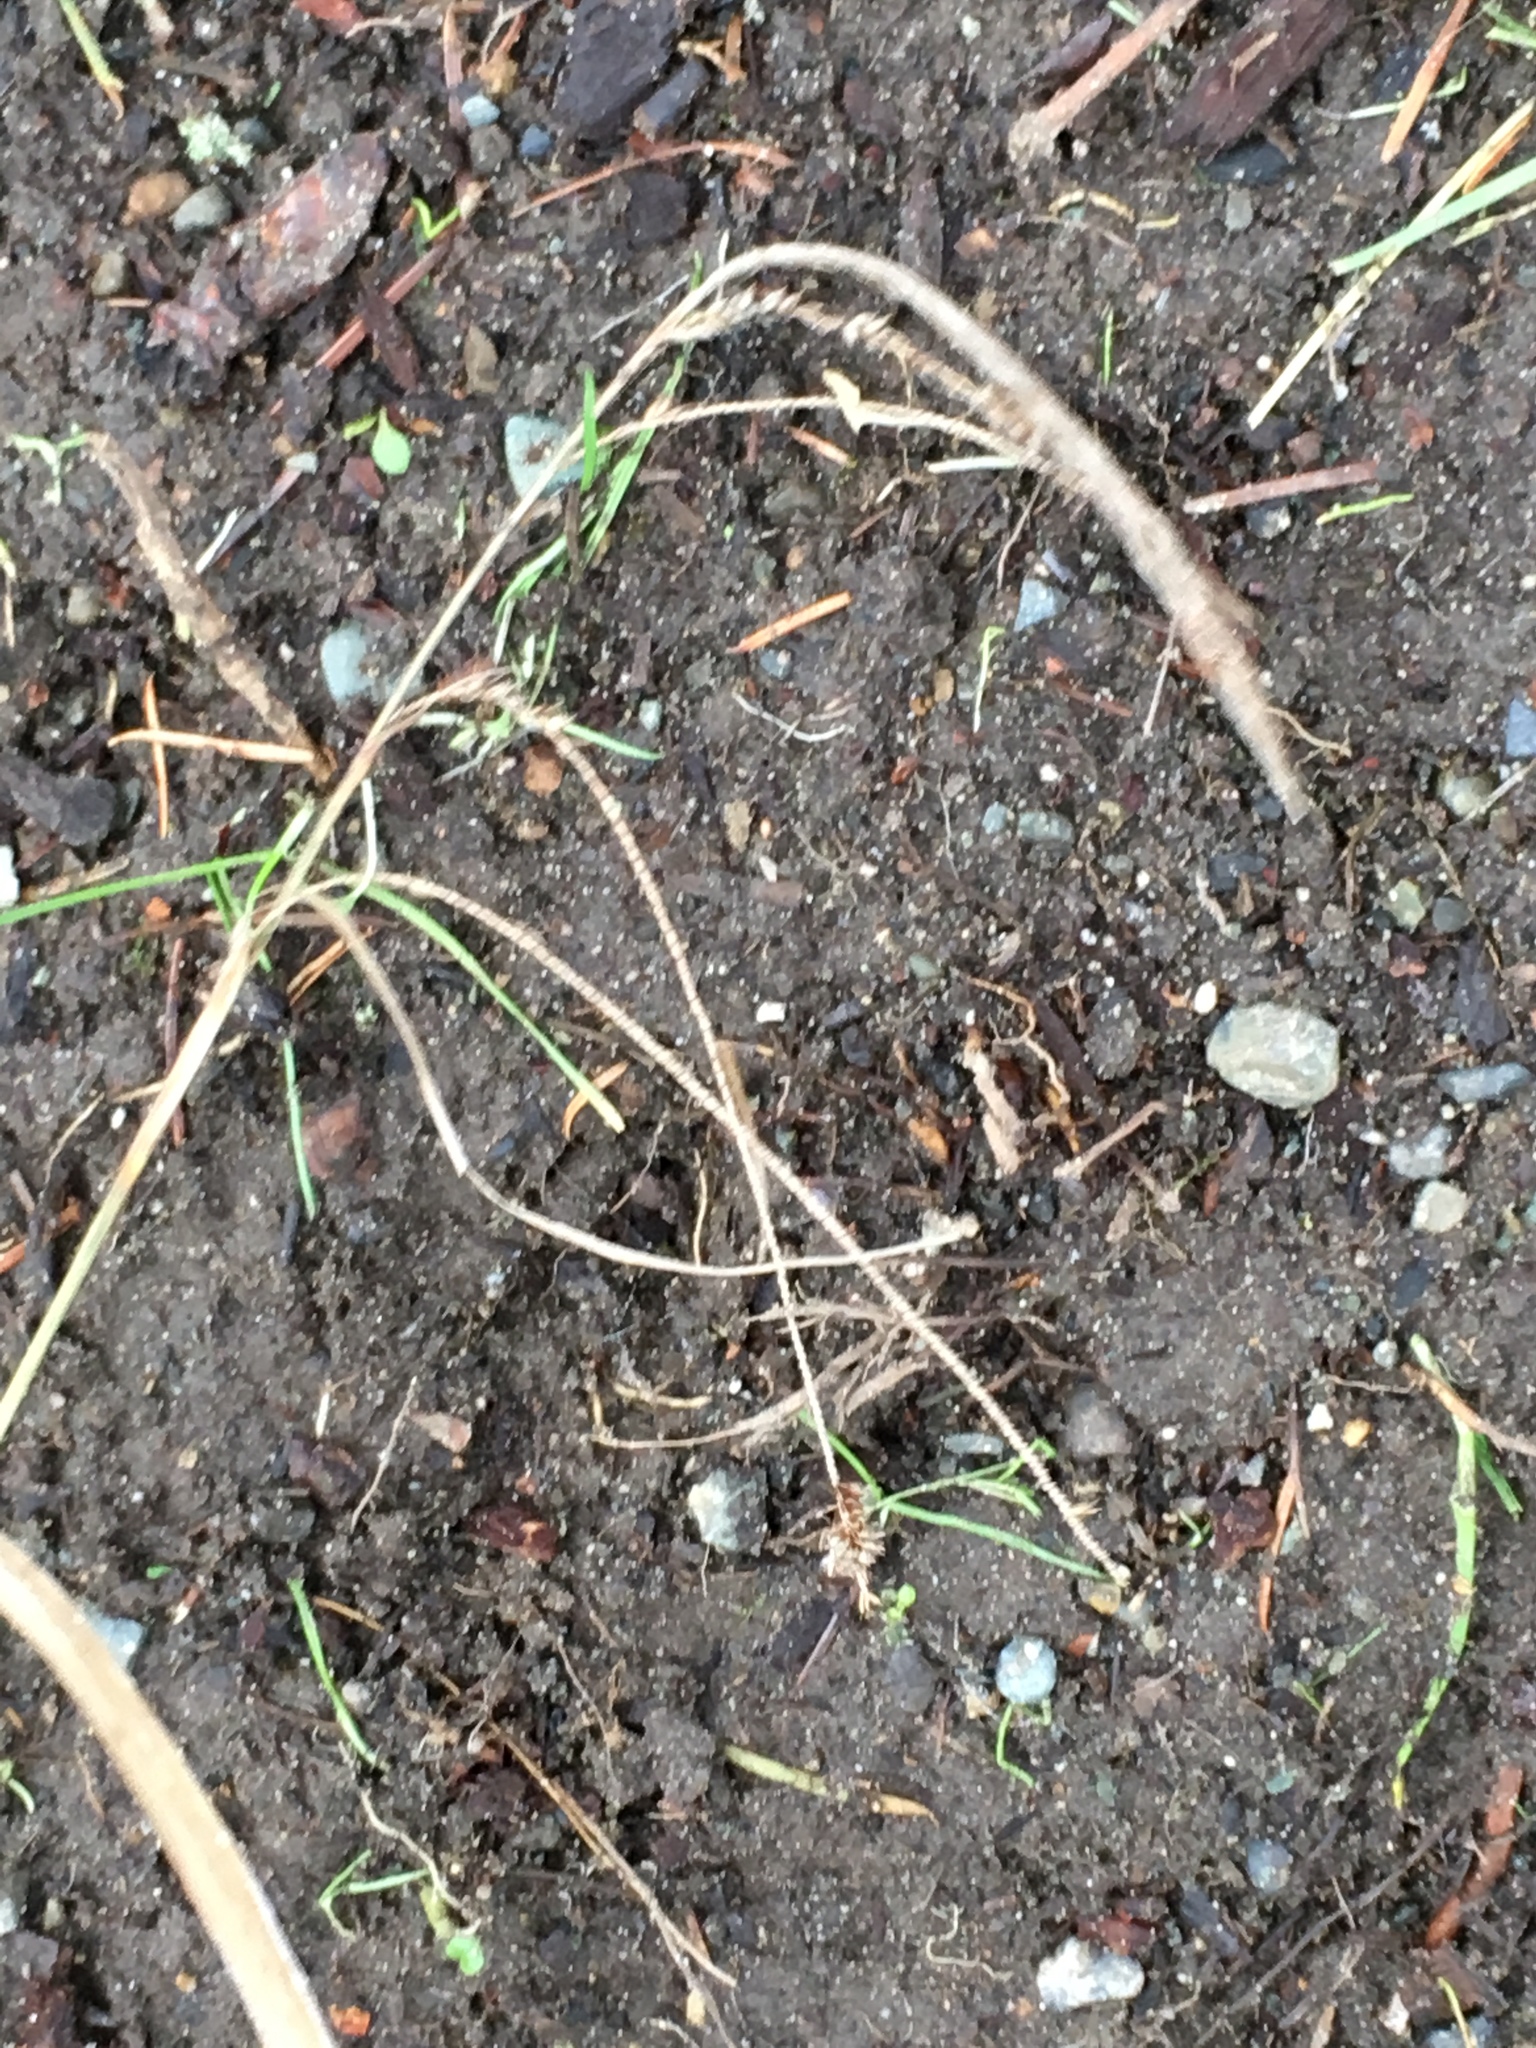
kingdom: Plantae
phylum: Tracheophyta
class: Liliopsida
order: Poales
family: Cyperaceae
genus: Carex
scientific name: Carex pendula
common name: Pendulous sedge
